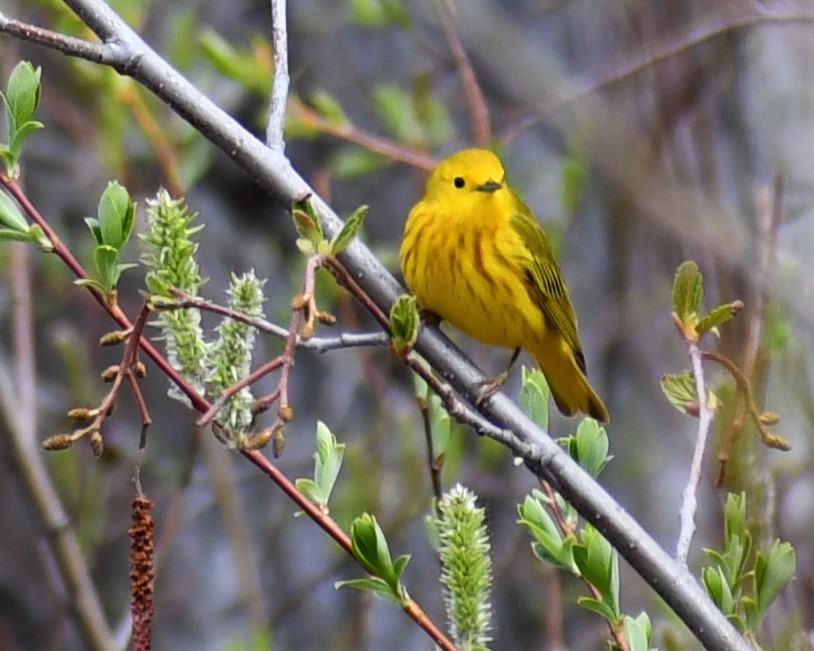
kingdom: Animalia
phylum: Chordata
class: Aves
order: Passeriformes
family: Parulidae
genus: Setophaga
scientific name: Setophaga petechia
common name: Yellow warbler
